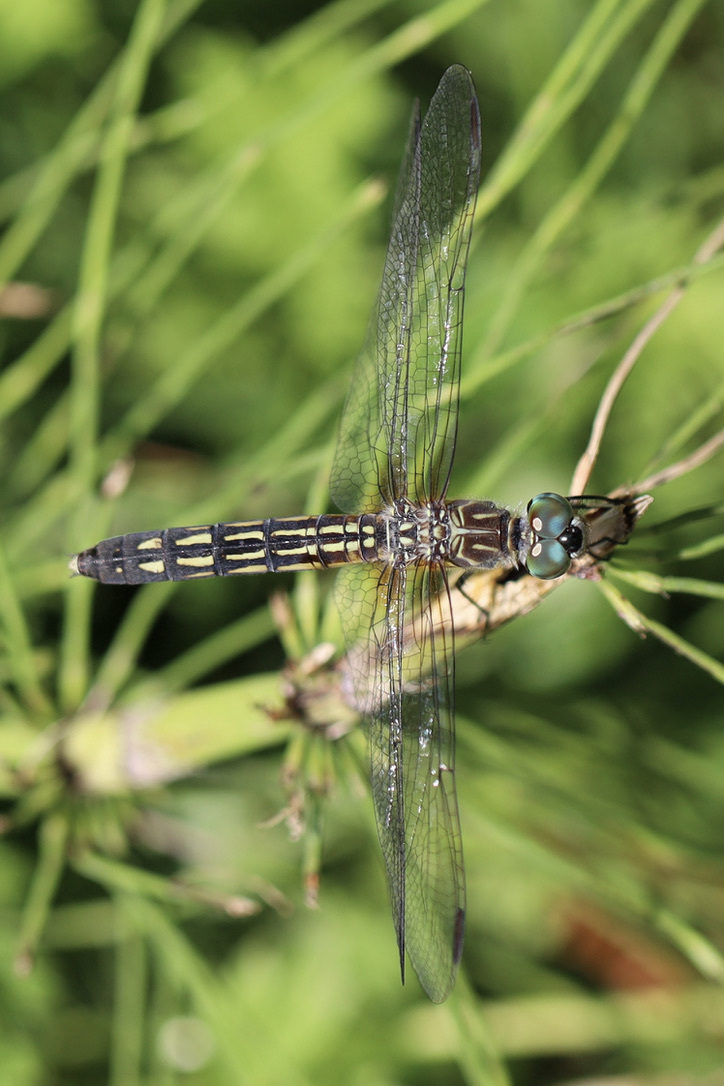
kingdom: Animalia
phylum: Arthropoda
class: Insecta
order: Odonata
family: Libellulidae
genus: Pachydiplax
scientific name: Pachydiplax longipennis
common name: Blue dasher
